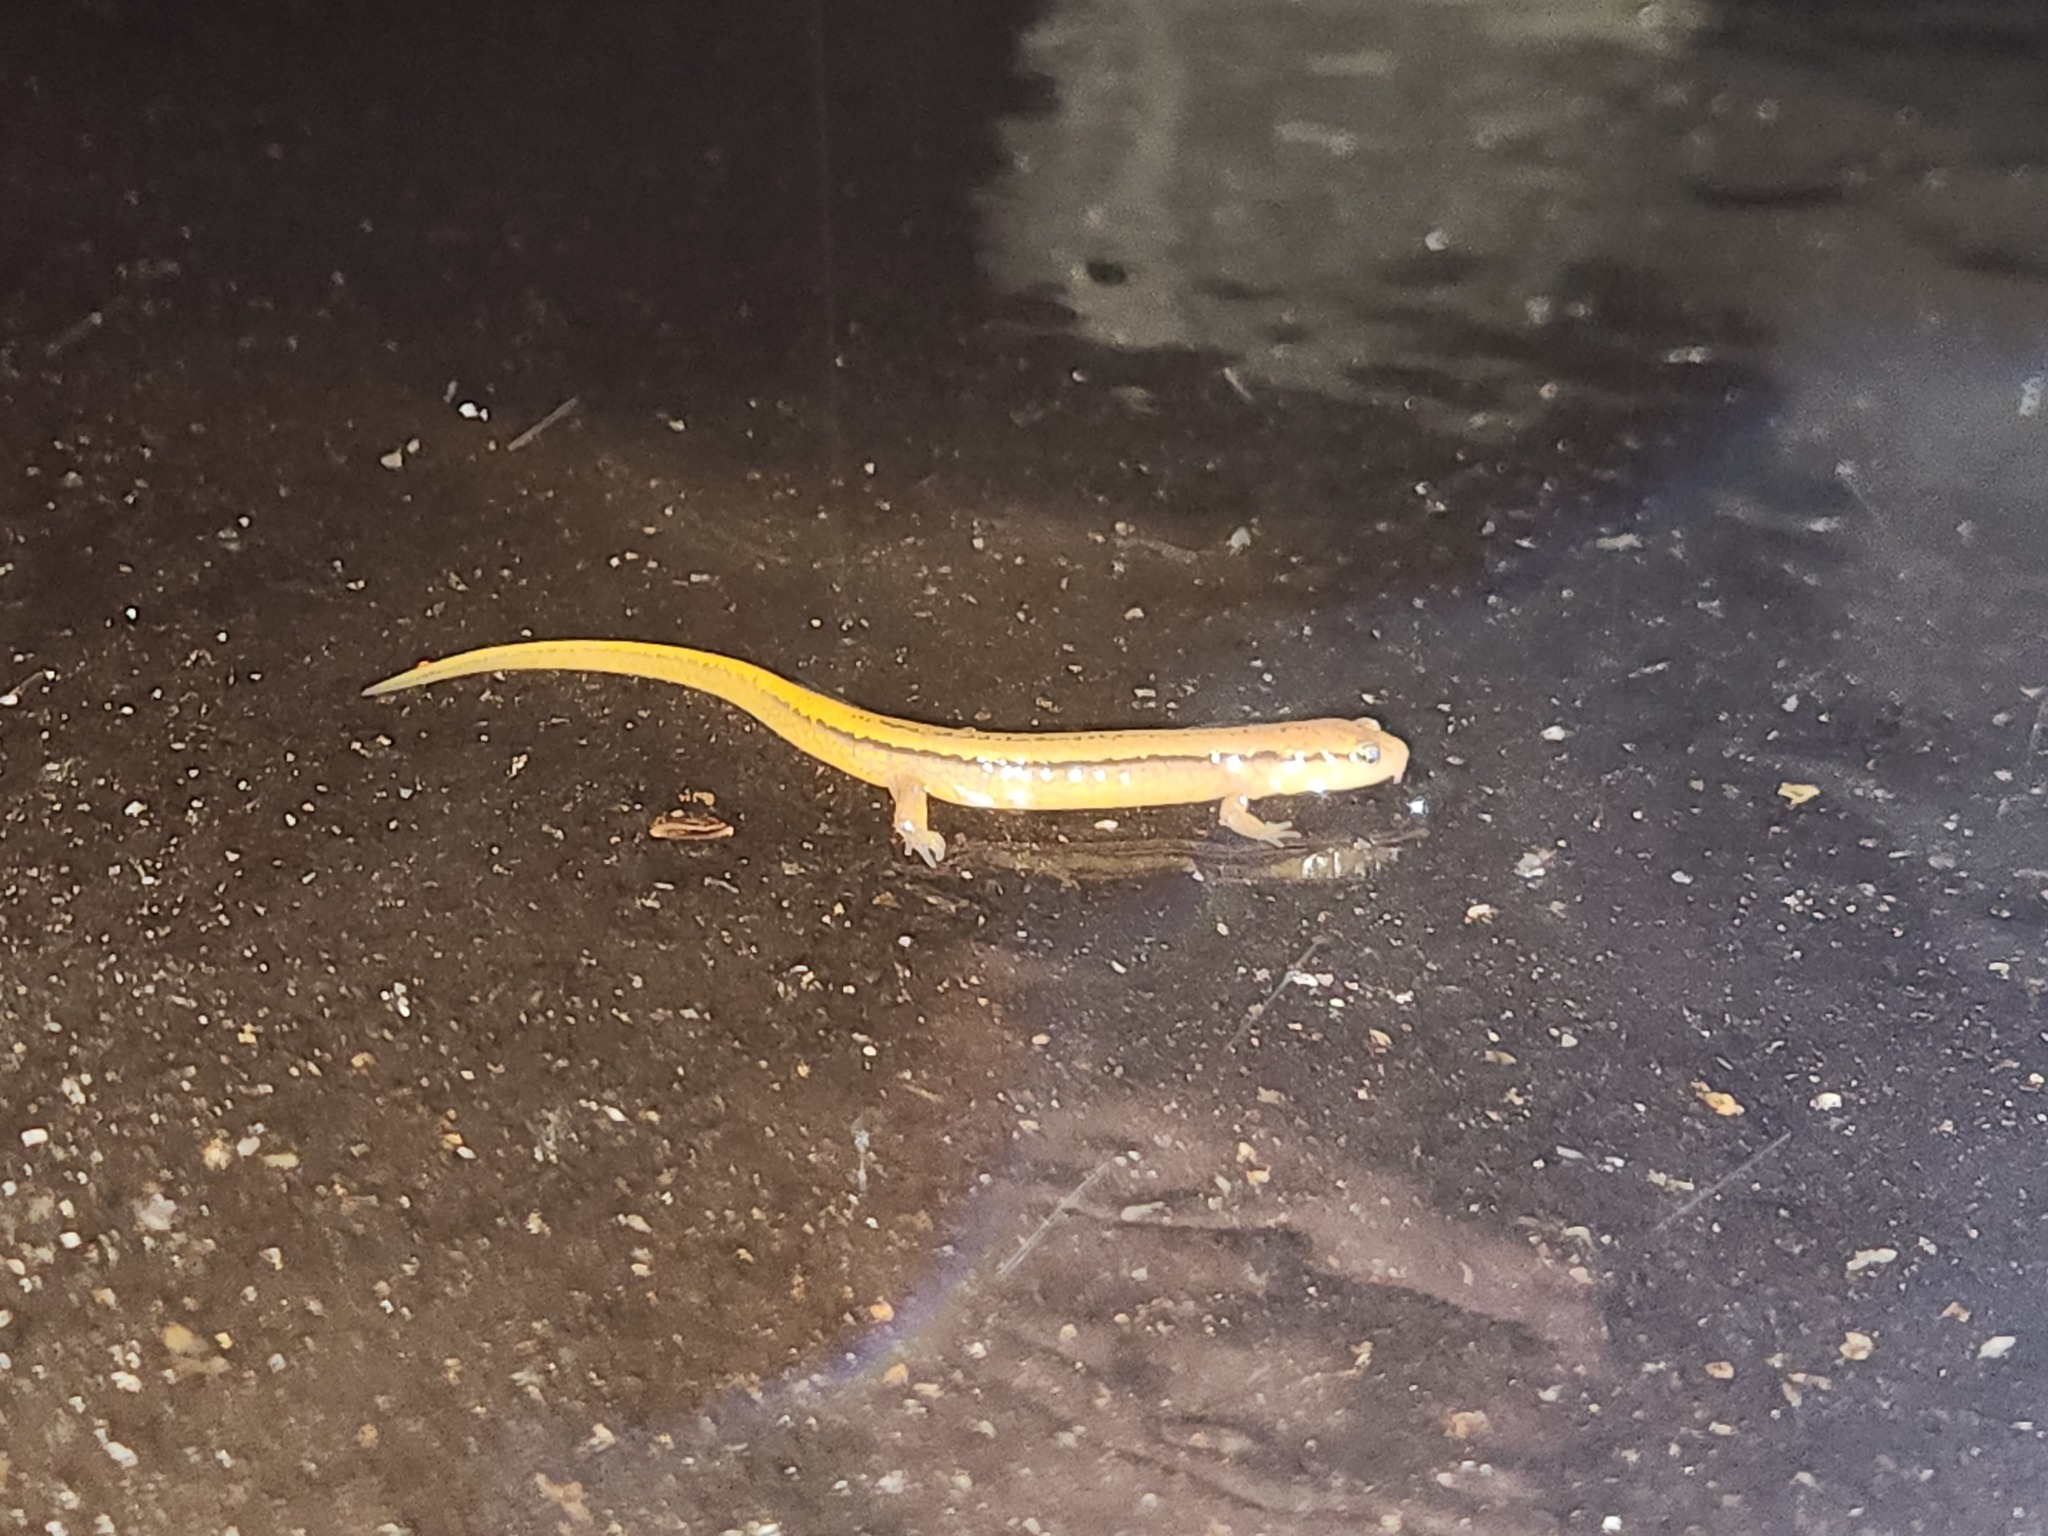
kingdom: Animalia
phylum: Chordata
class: Amphibia
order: Caudata
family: Plethodontidae
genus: Eurycea
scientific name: Eurycea cirrigera
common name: Southern two-lined salamander
